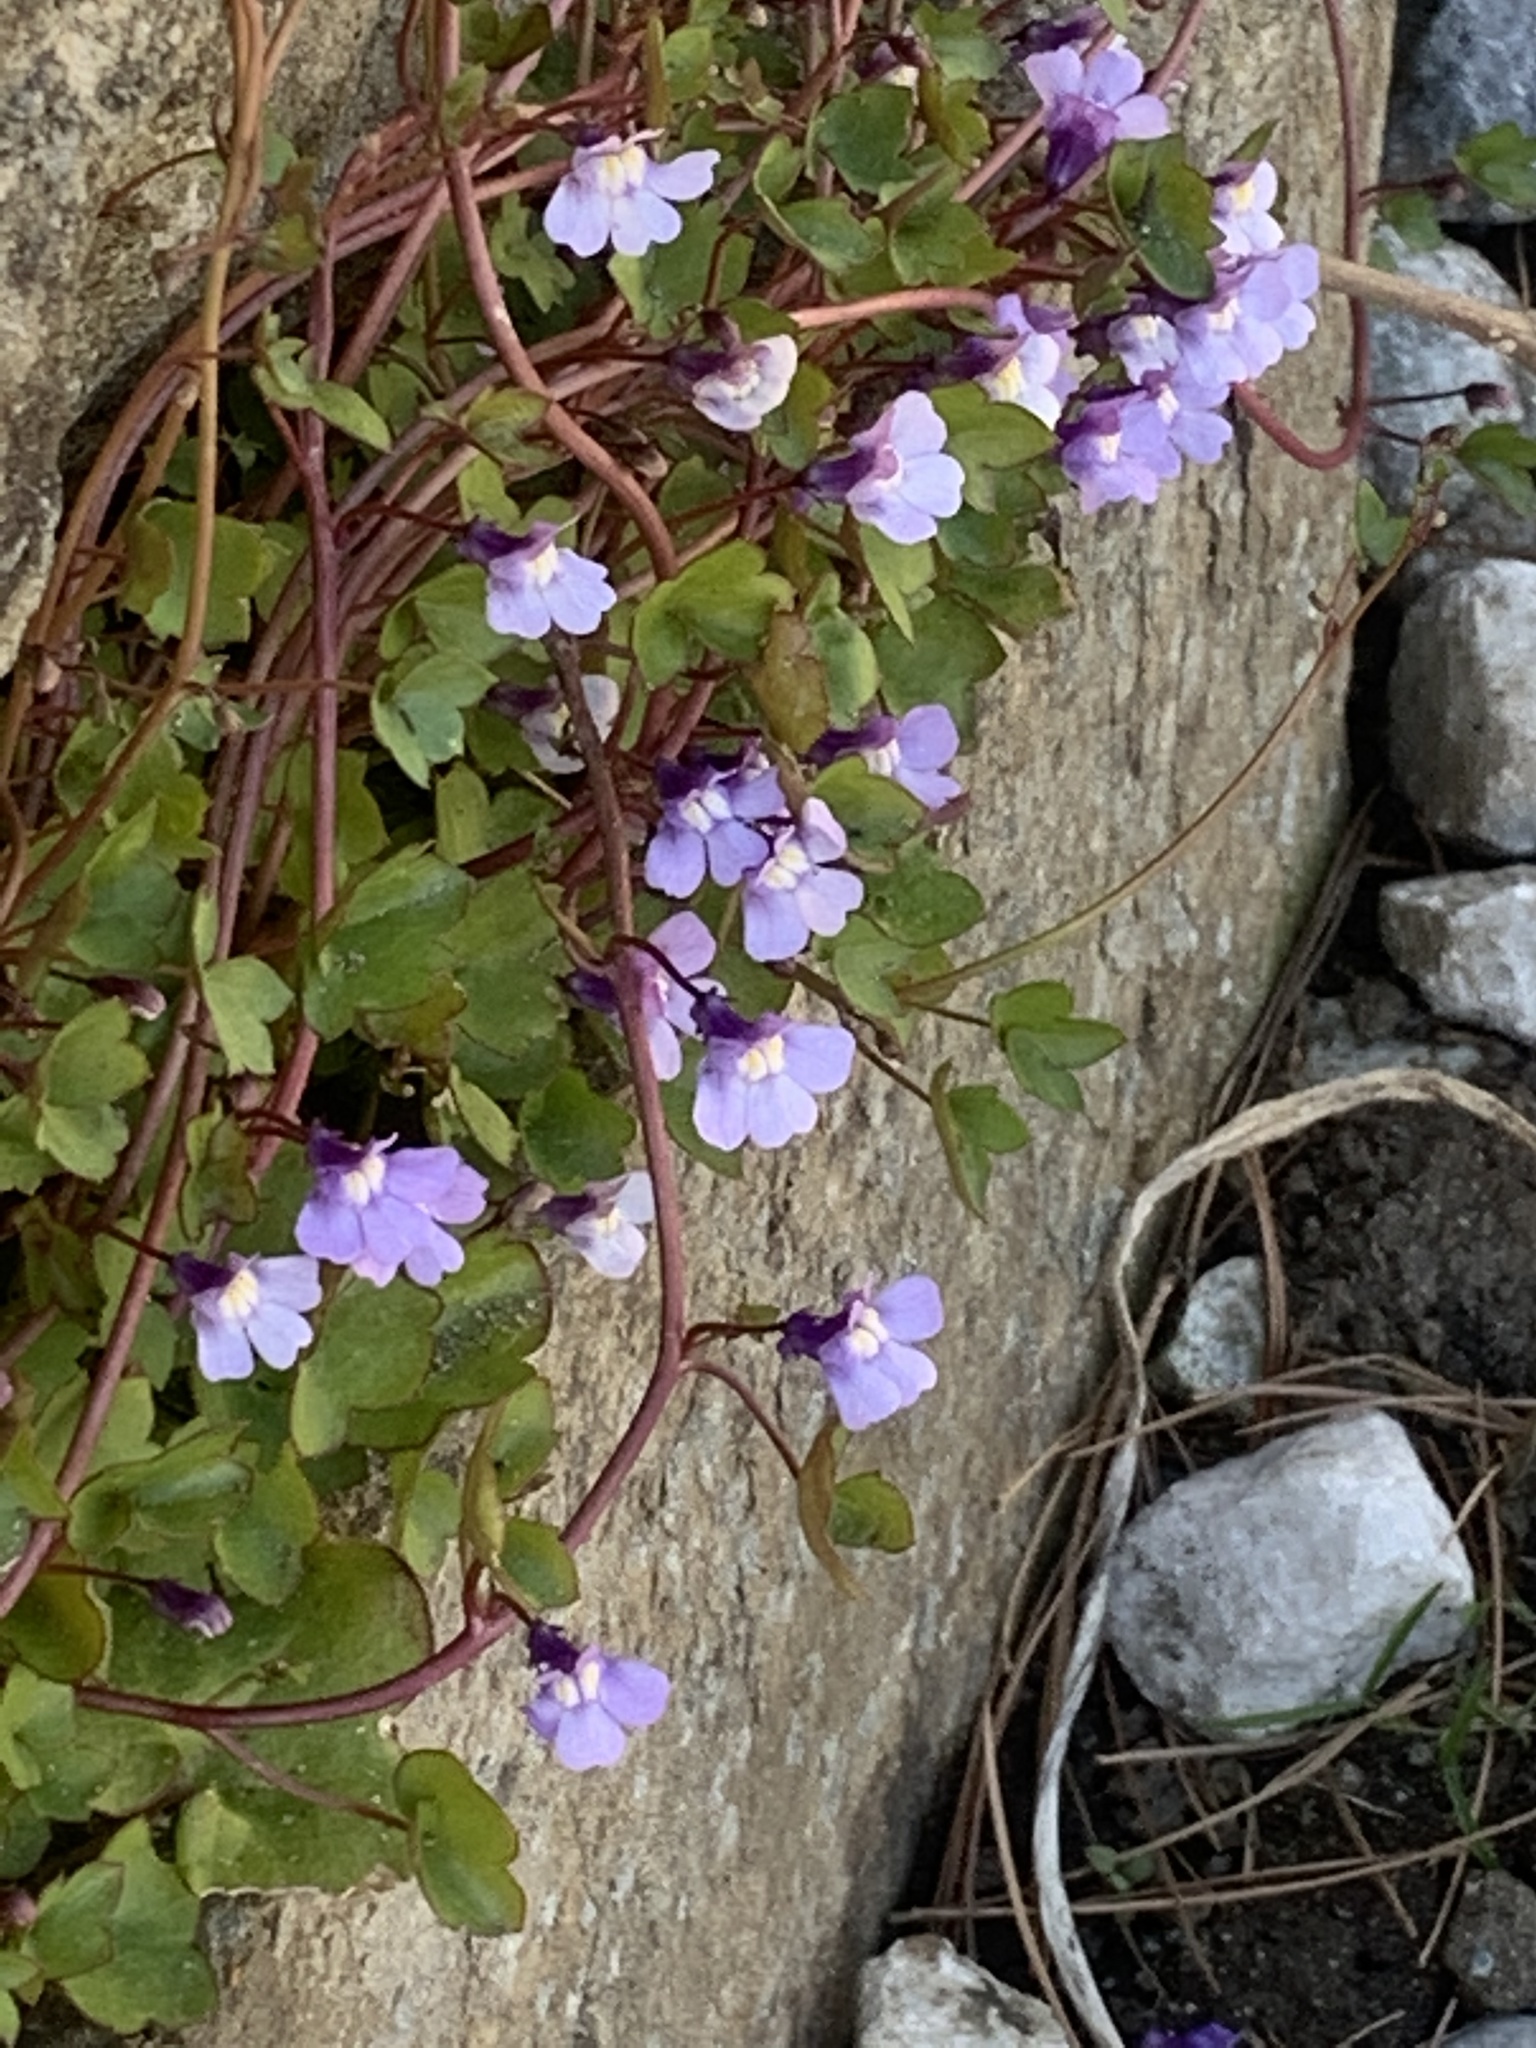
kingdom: Plantae
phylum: Tracheophyta
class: Magnoliopsida
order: Lamiales
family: Plantaginaceae
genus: Cymbalaria
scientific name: Cymbalaria muralis
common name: Ivy-leaved toadflax
